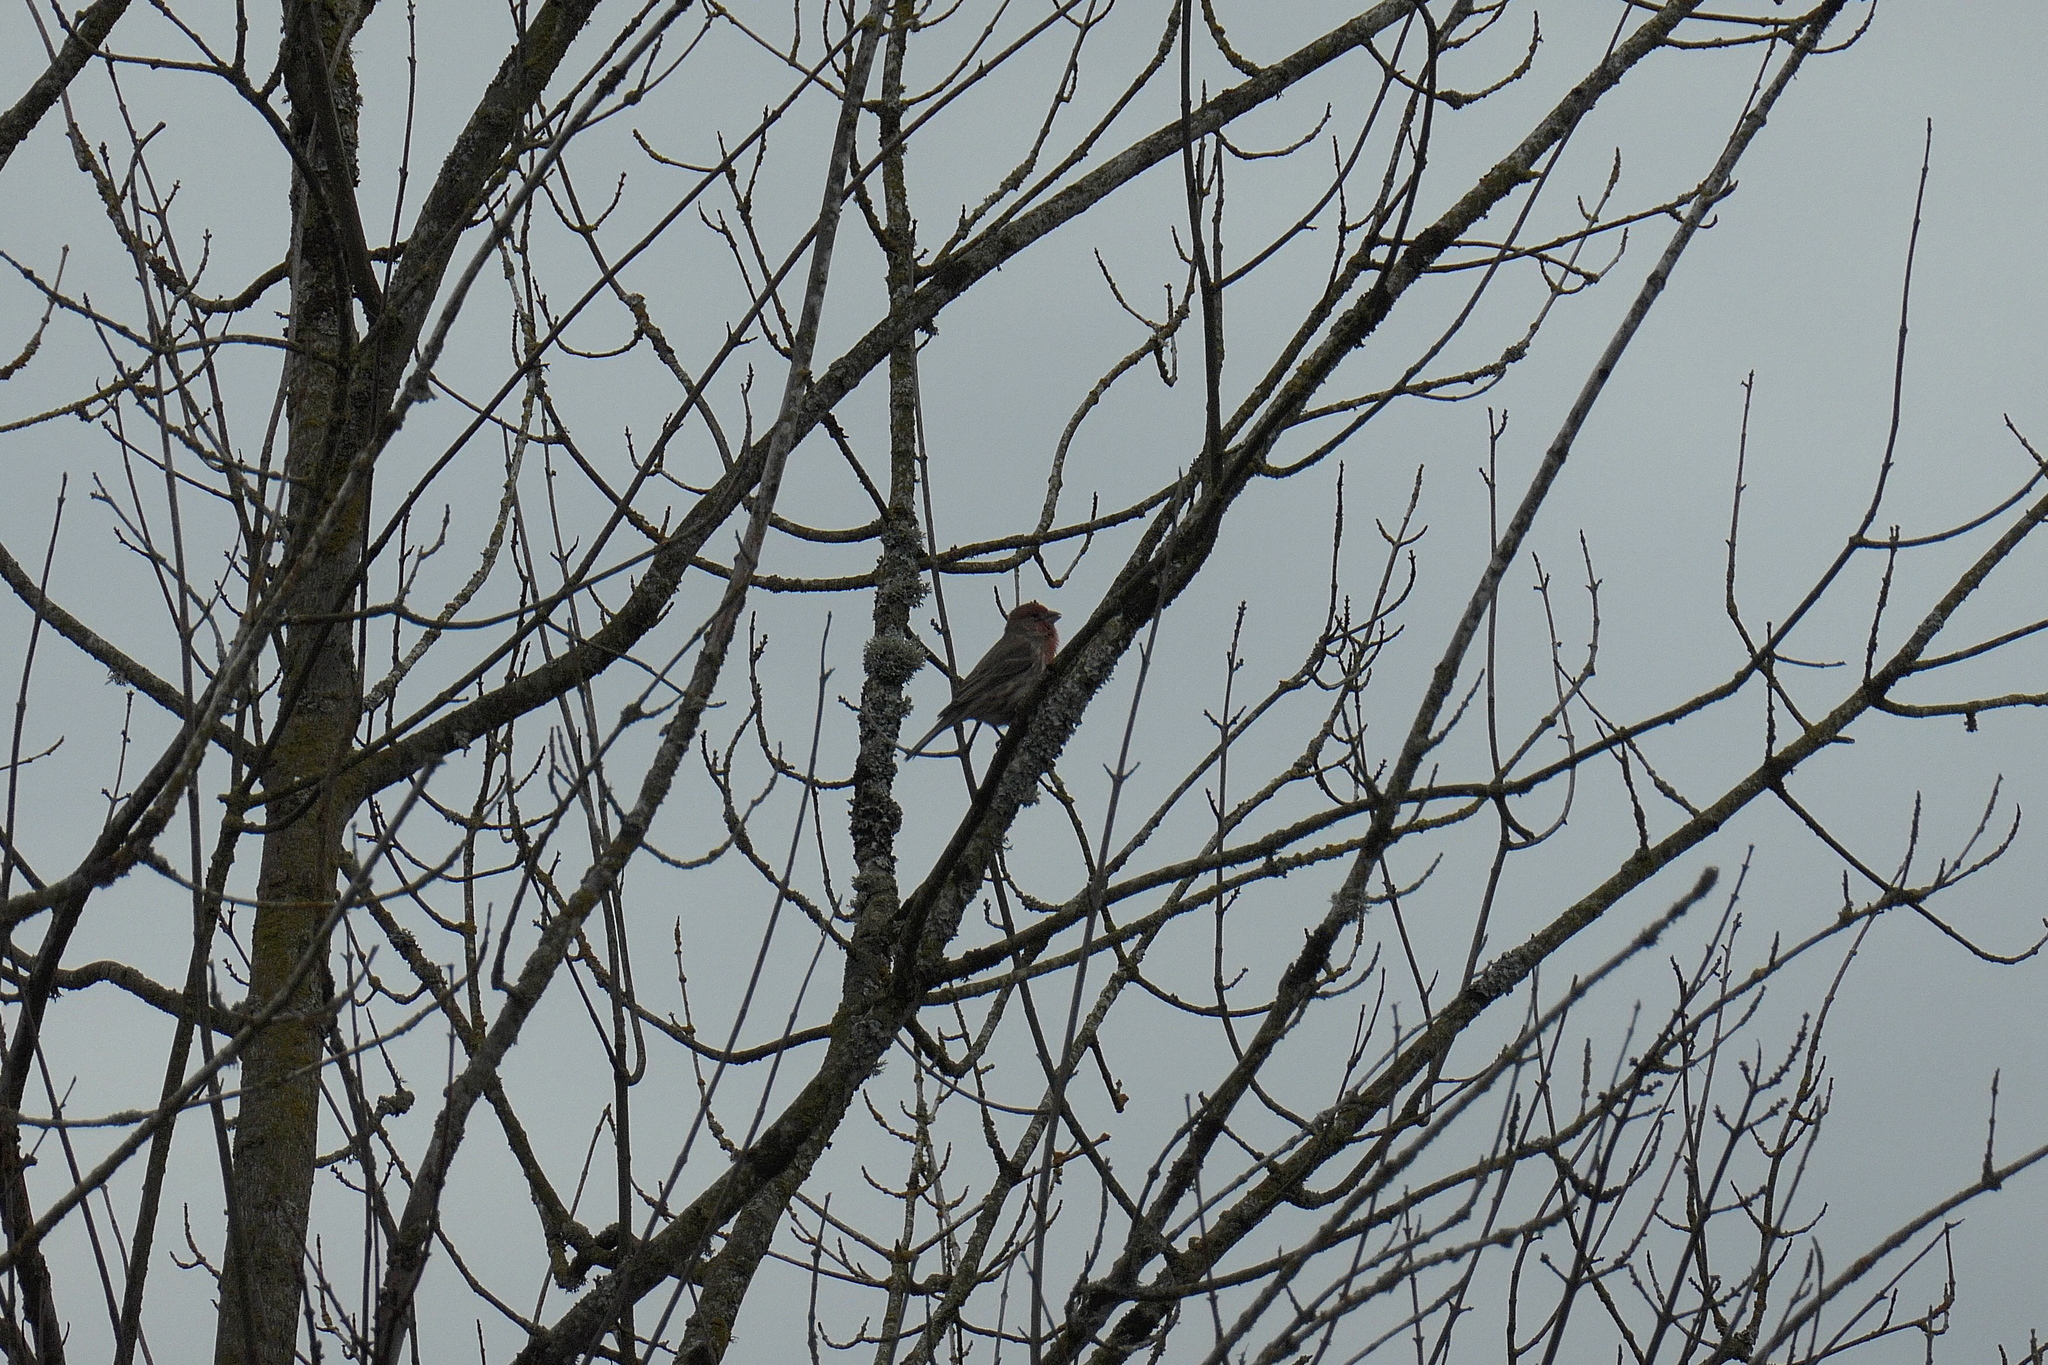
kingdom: Animalia
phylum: Chordata
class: Aves
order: Passeriformes
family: Fringillidae
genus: Haemorhous
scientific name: Haemorhous mexicanus
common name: House finch
